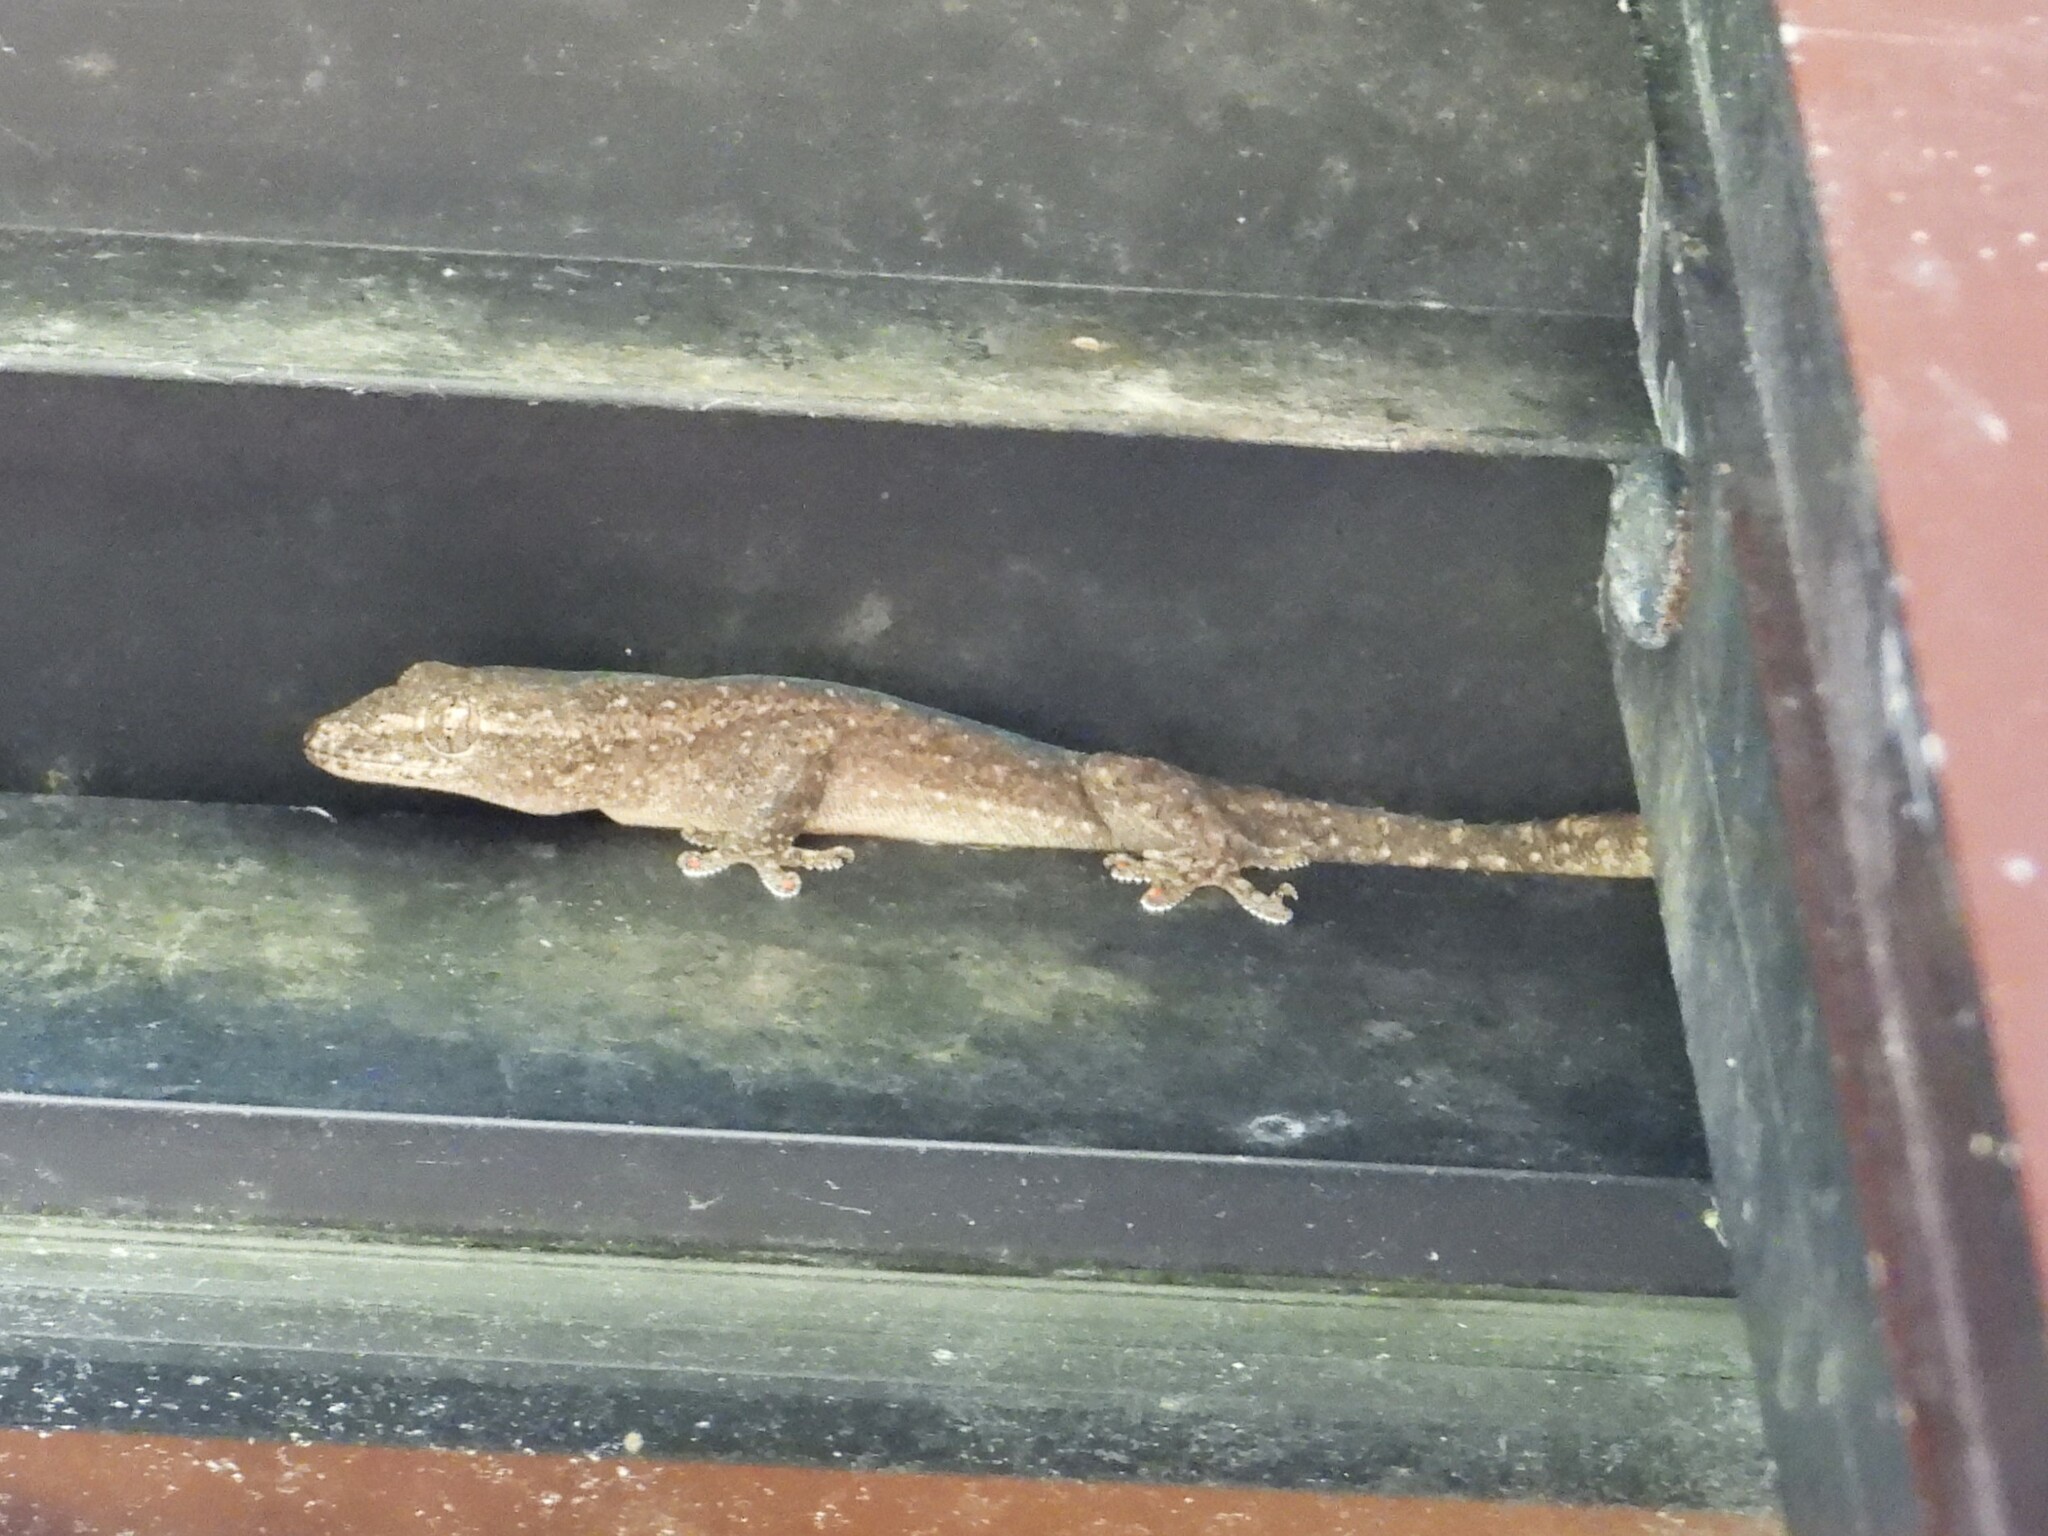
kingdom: Animalia
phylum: Chordata
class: Squamata
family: Gekkonidae
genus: Hemidactylus
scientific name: Hemidactylus frenatus
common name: Common house gecko
